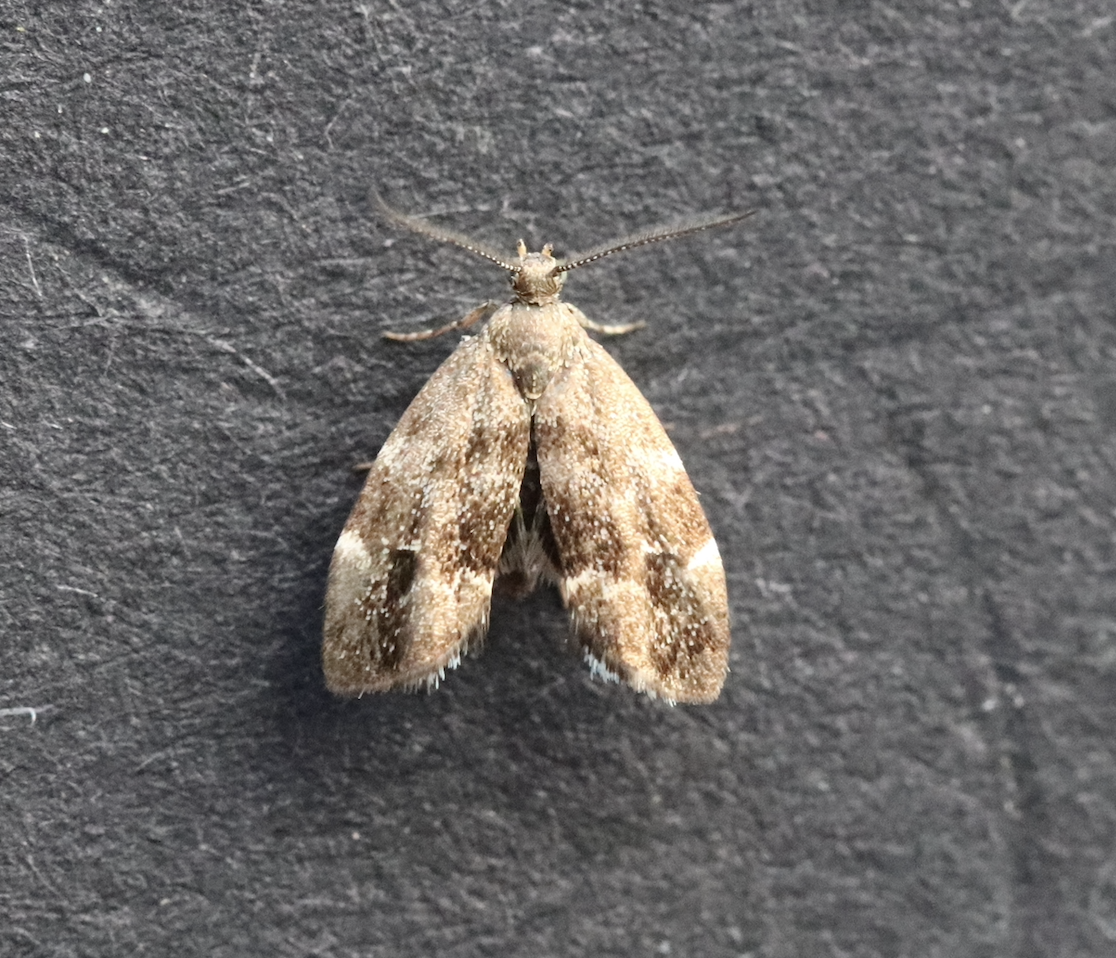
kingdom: Animalia
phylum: Arthropoda
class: Insecta
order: Lepidoptera
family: Choreutidae
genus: Anthophila
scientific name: Anthophila fabriciana
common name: Nettle-tap
